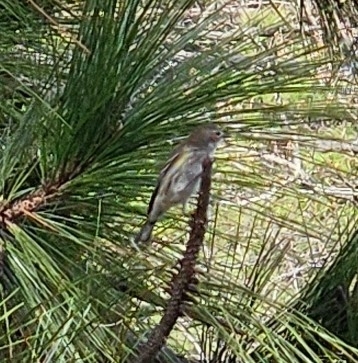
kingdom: Animalia
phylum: Chordata
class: Aves
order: Passeriformes
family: Parulidae
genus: Setophaga
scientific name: Setophaga coronata
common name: Myrtle warbler
